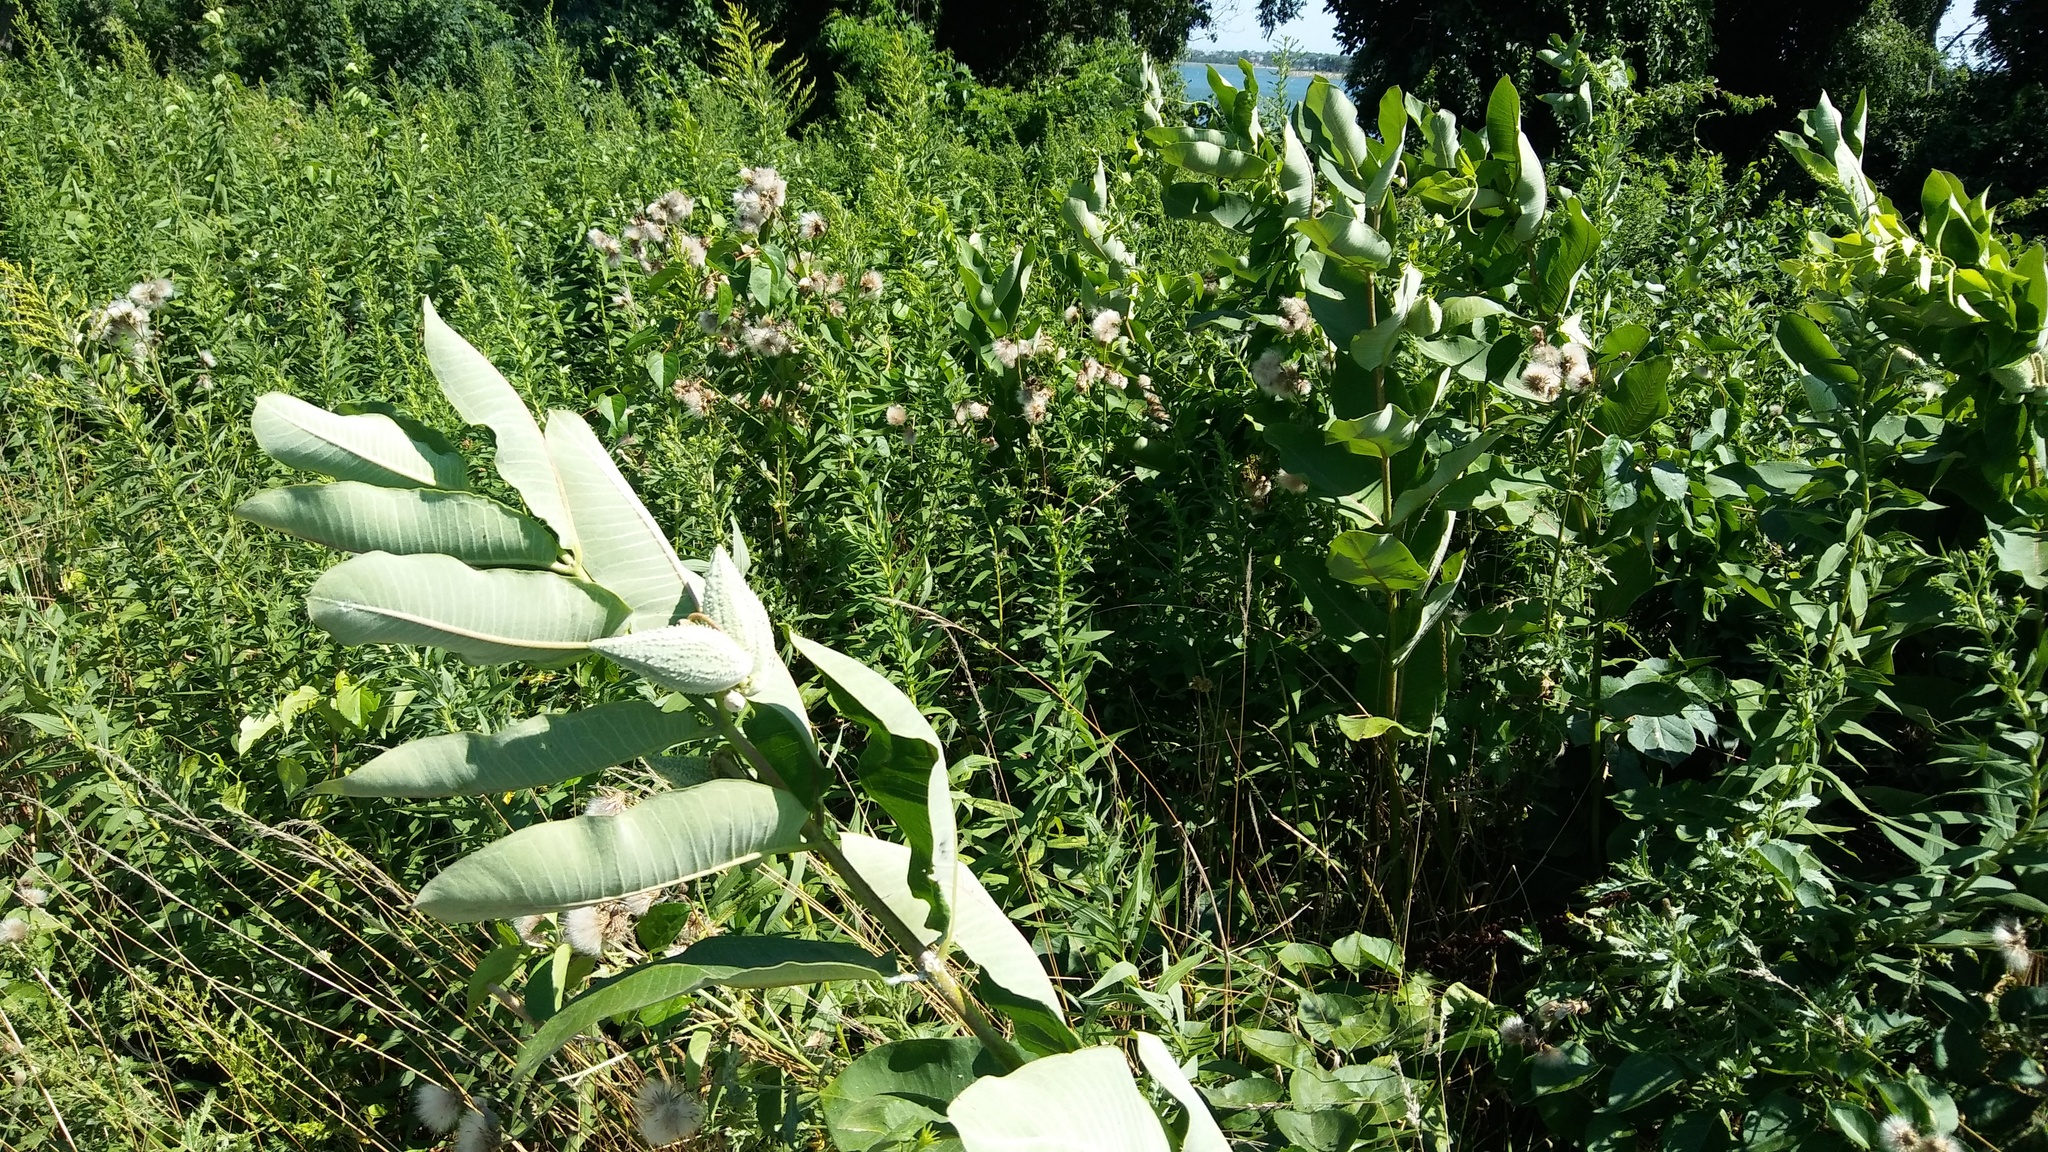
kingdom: Plantae
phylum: Tracheophyta
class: Magnoliopsida
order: Gentianales
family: Apocynaceae
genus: Asclepias
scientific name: Asclepias syriaca
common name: Common milkweed
